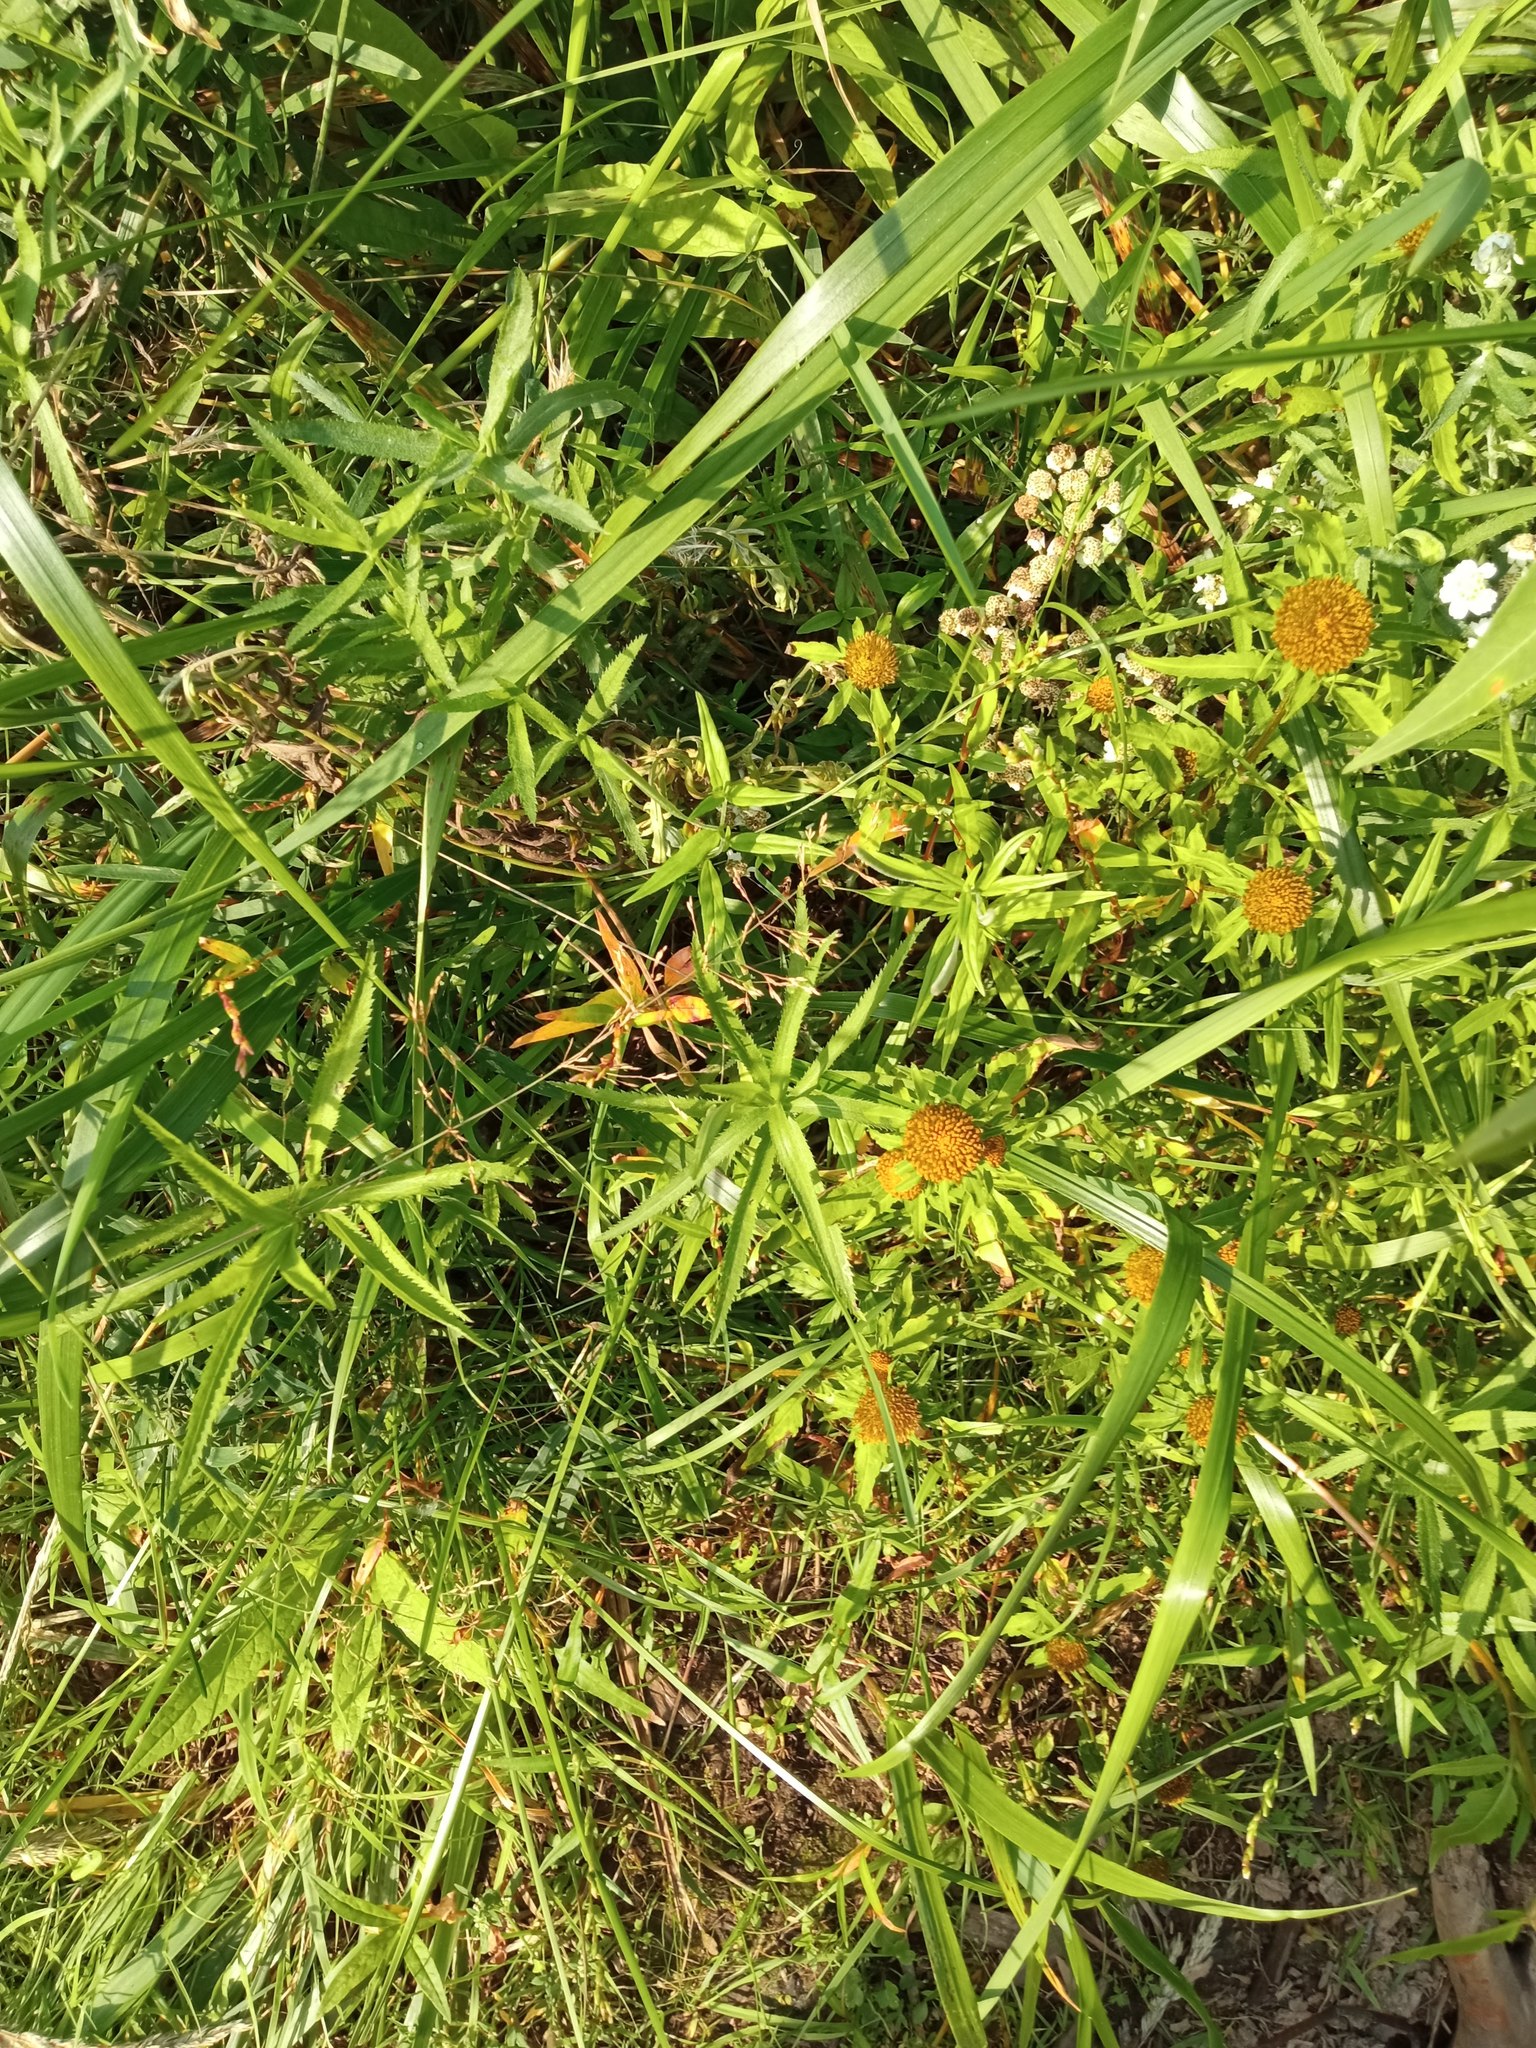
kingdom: Plantae
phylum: Tracheophyta
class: Magnoliopsida
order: Asterales
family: Asteraceae
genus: Bidens
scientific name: Bidens radiata
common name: Radiating bur-marigold
